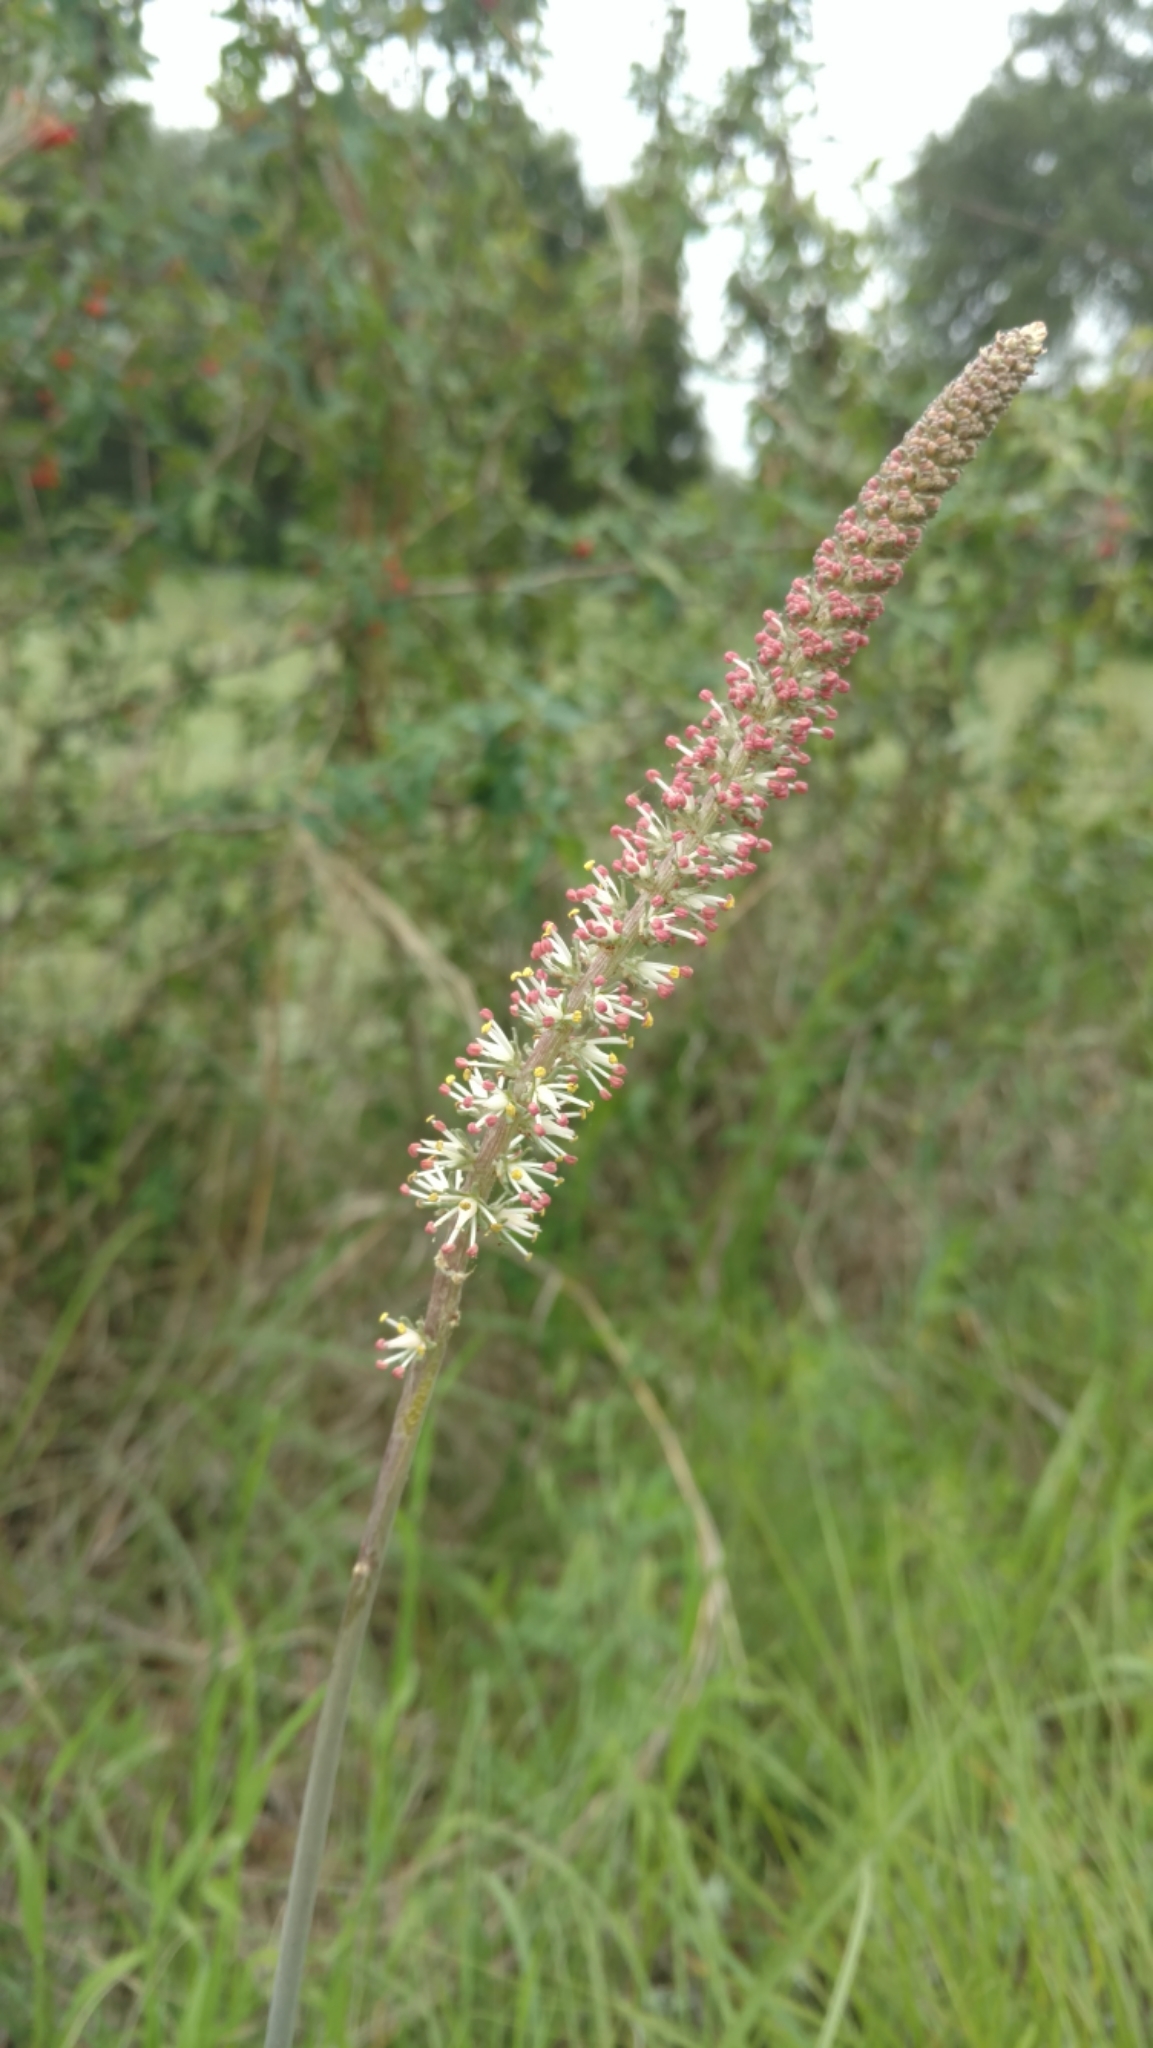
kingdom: Plantae
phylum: Tracheophyta
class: Liliopsida
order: Liliales
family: Melanthiaceae
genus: Schoenocaulon
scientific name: Schoenocaulon texanum
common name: Texas feather-shank
